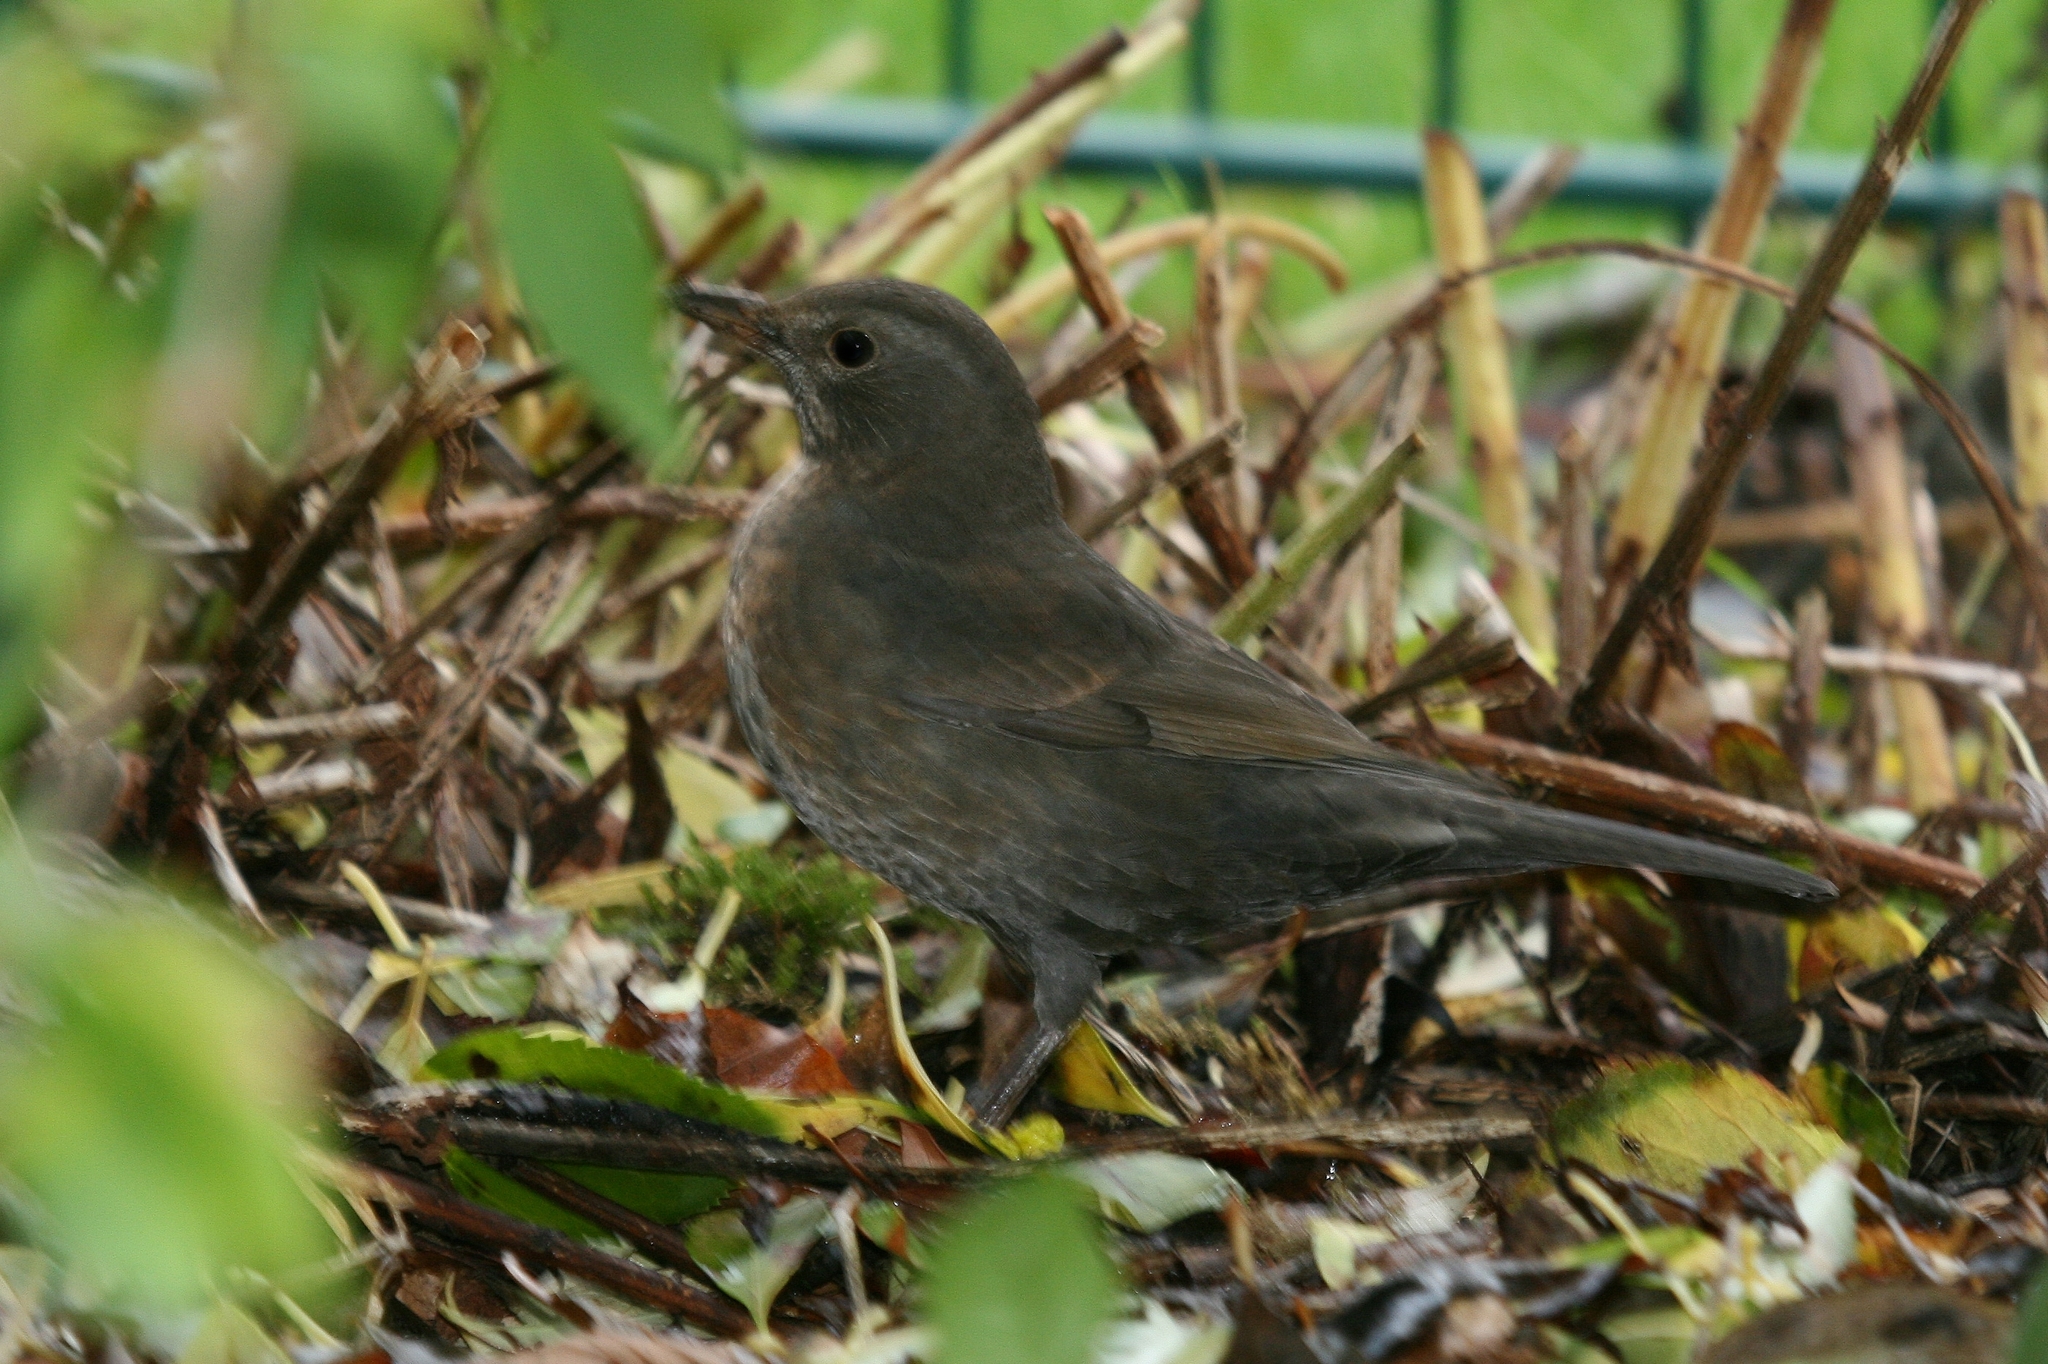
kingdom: Animalia
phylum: Chordata
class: Aves
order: Passeriformes
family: Turdidae
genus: Turdus
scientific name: Turdus merula
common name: Common blackbird
